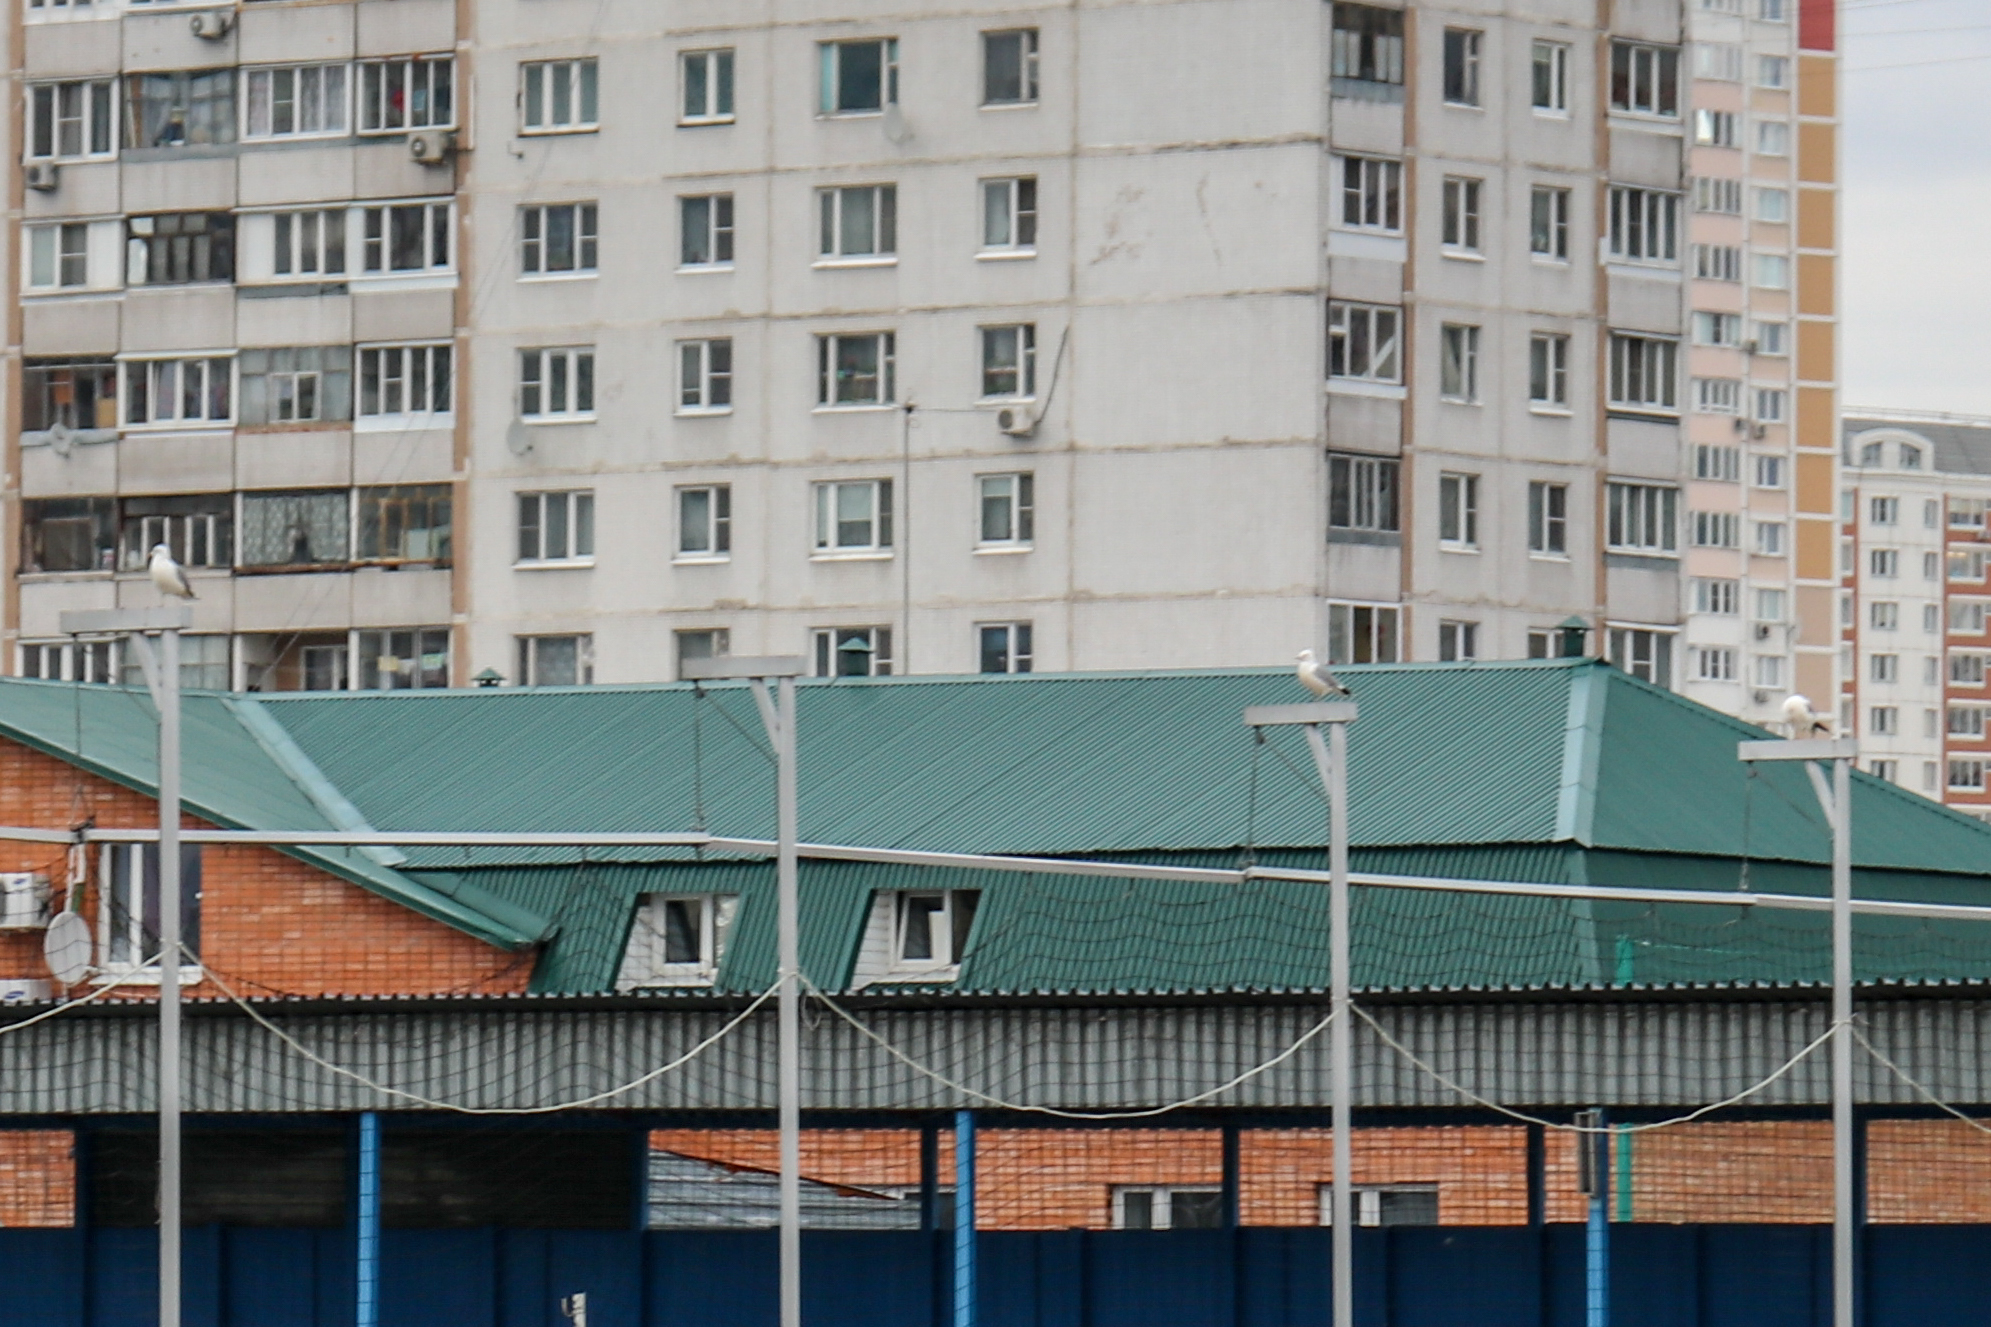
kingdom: Animalia
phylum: Chordata
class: Aves
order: Charadriiformes
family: Laridae
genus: Larus
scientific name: Larus canus
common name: Mew gull
